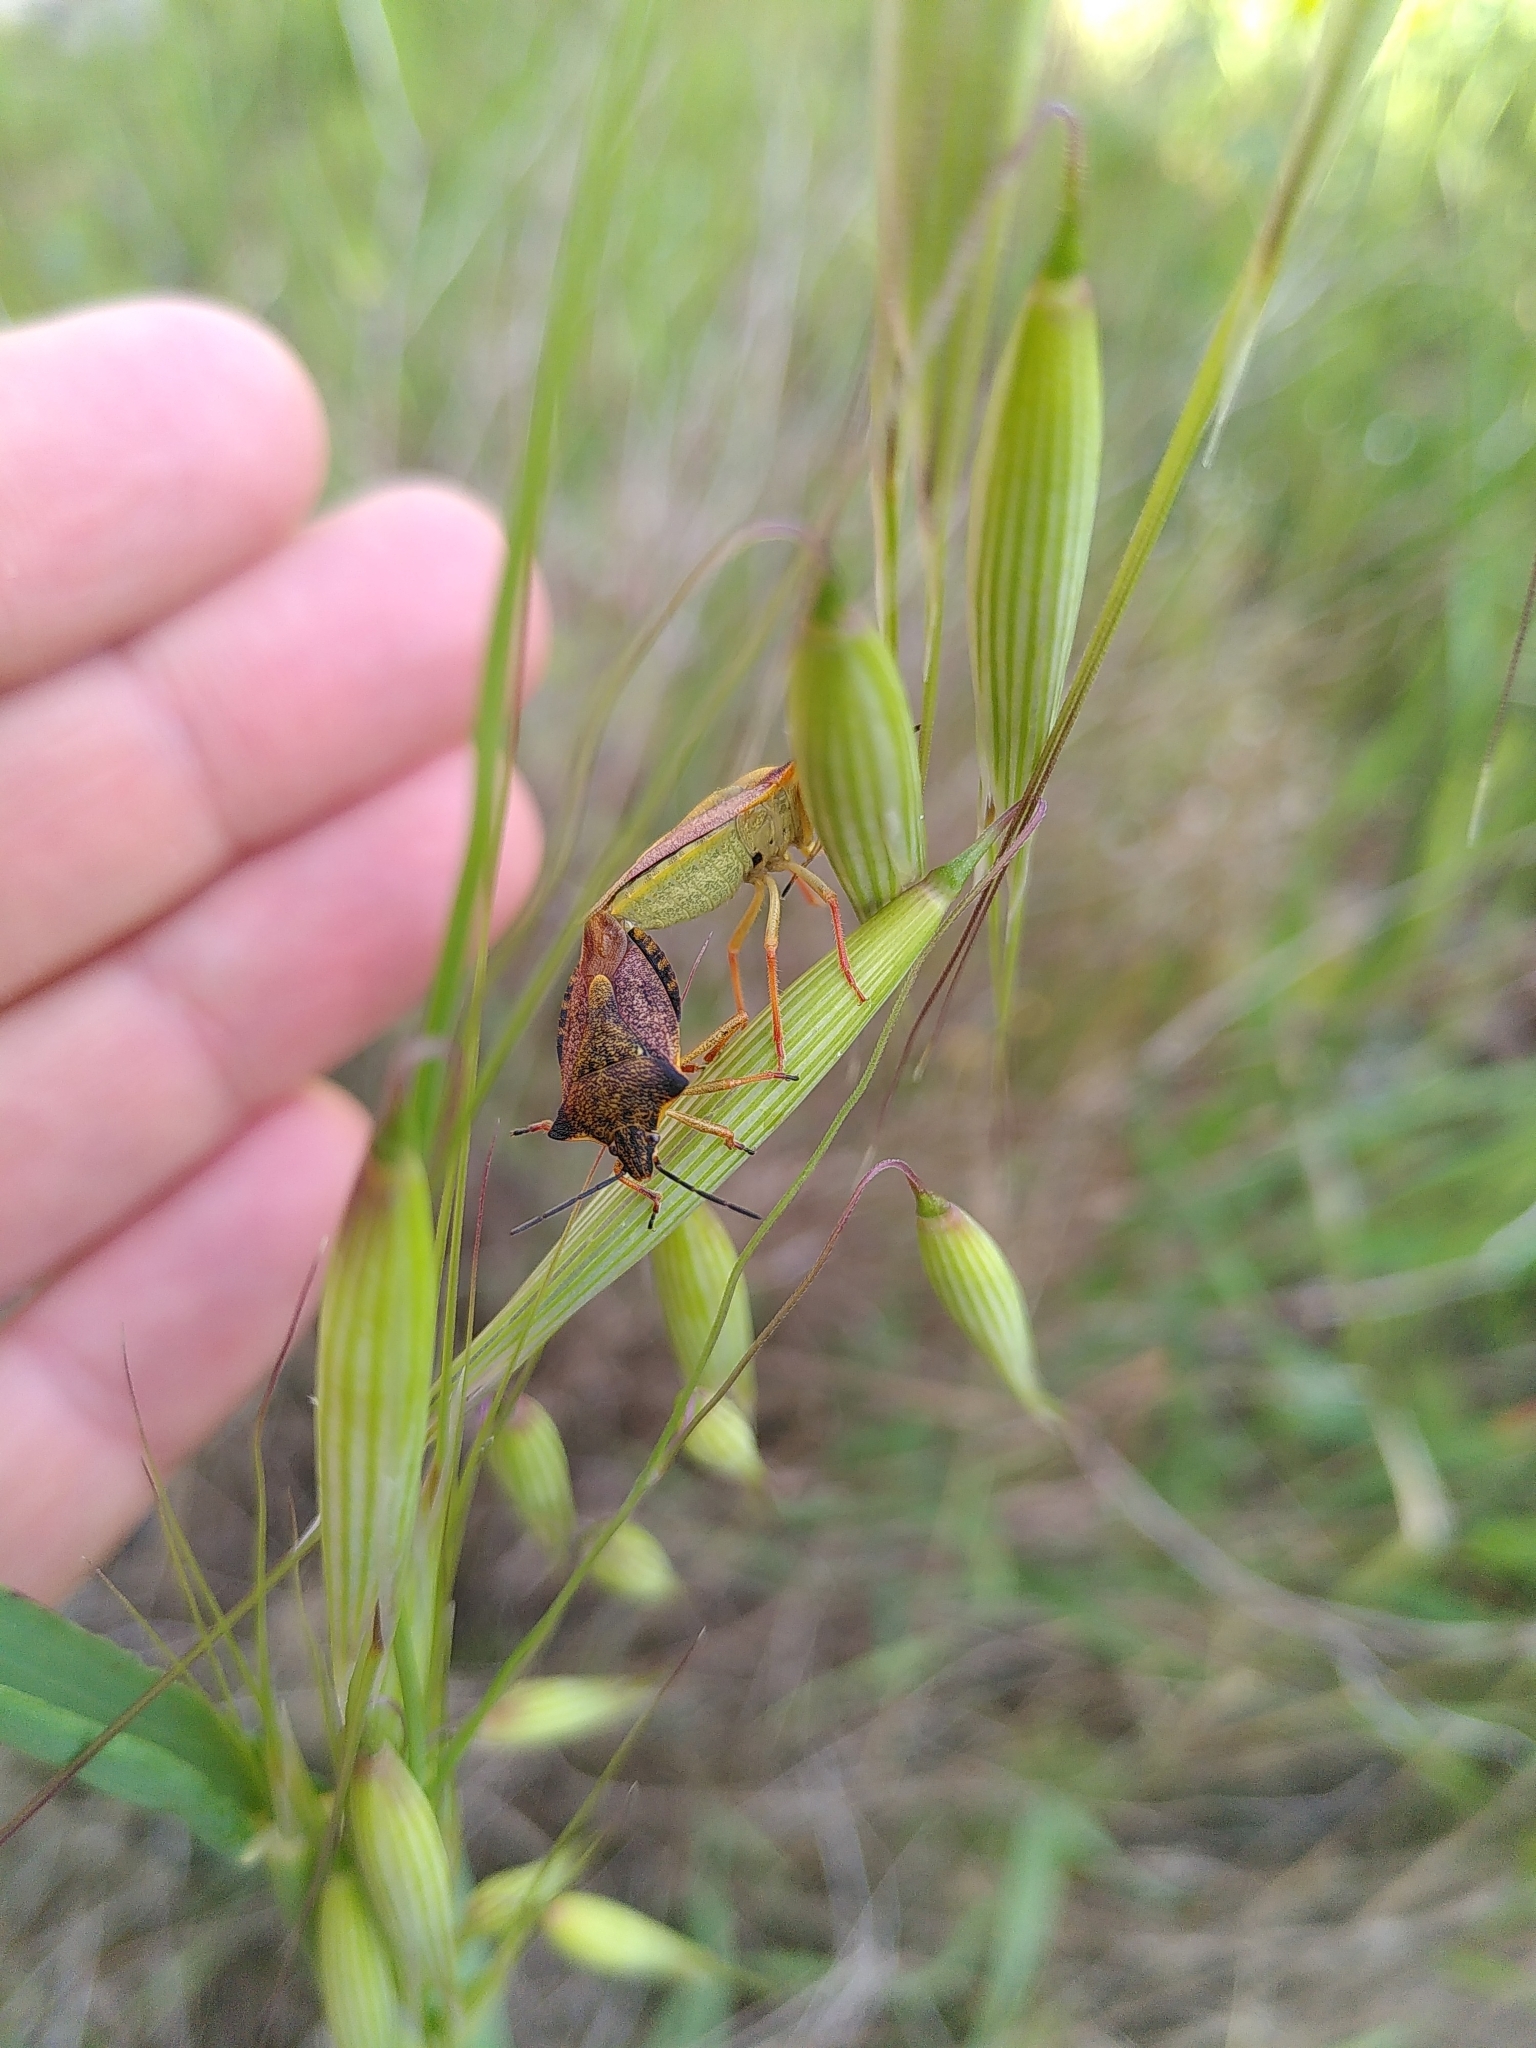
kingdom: Animalia
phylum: Arthropoda
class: Insecta
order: Hemiptera
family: Pentatomidae
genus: Carpocoris
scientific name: Carpocoris mediterraneus
